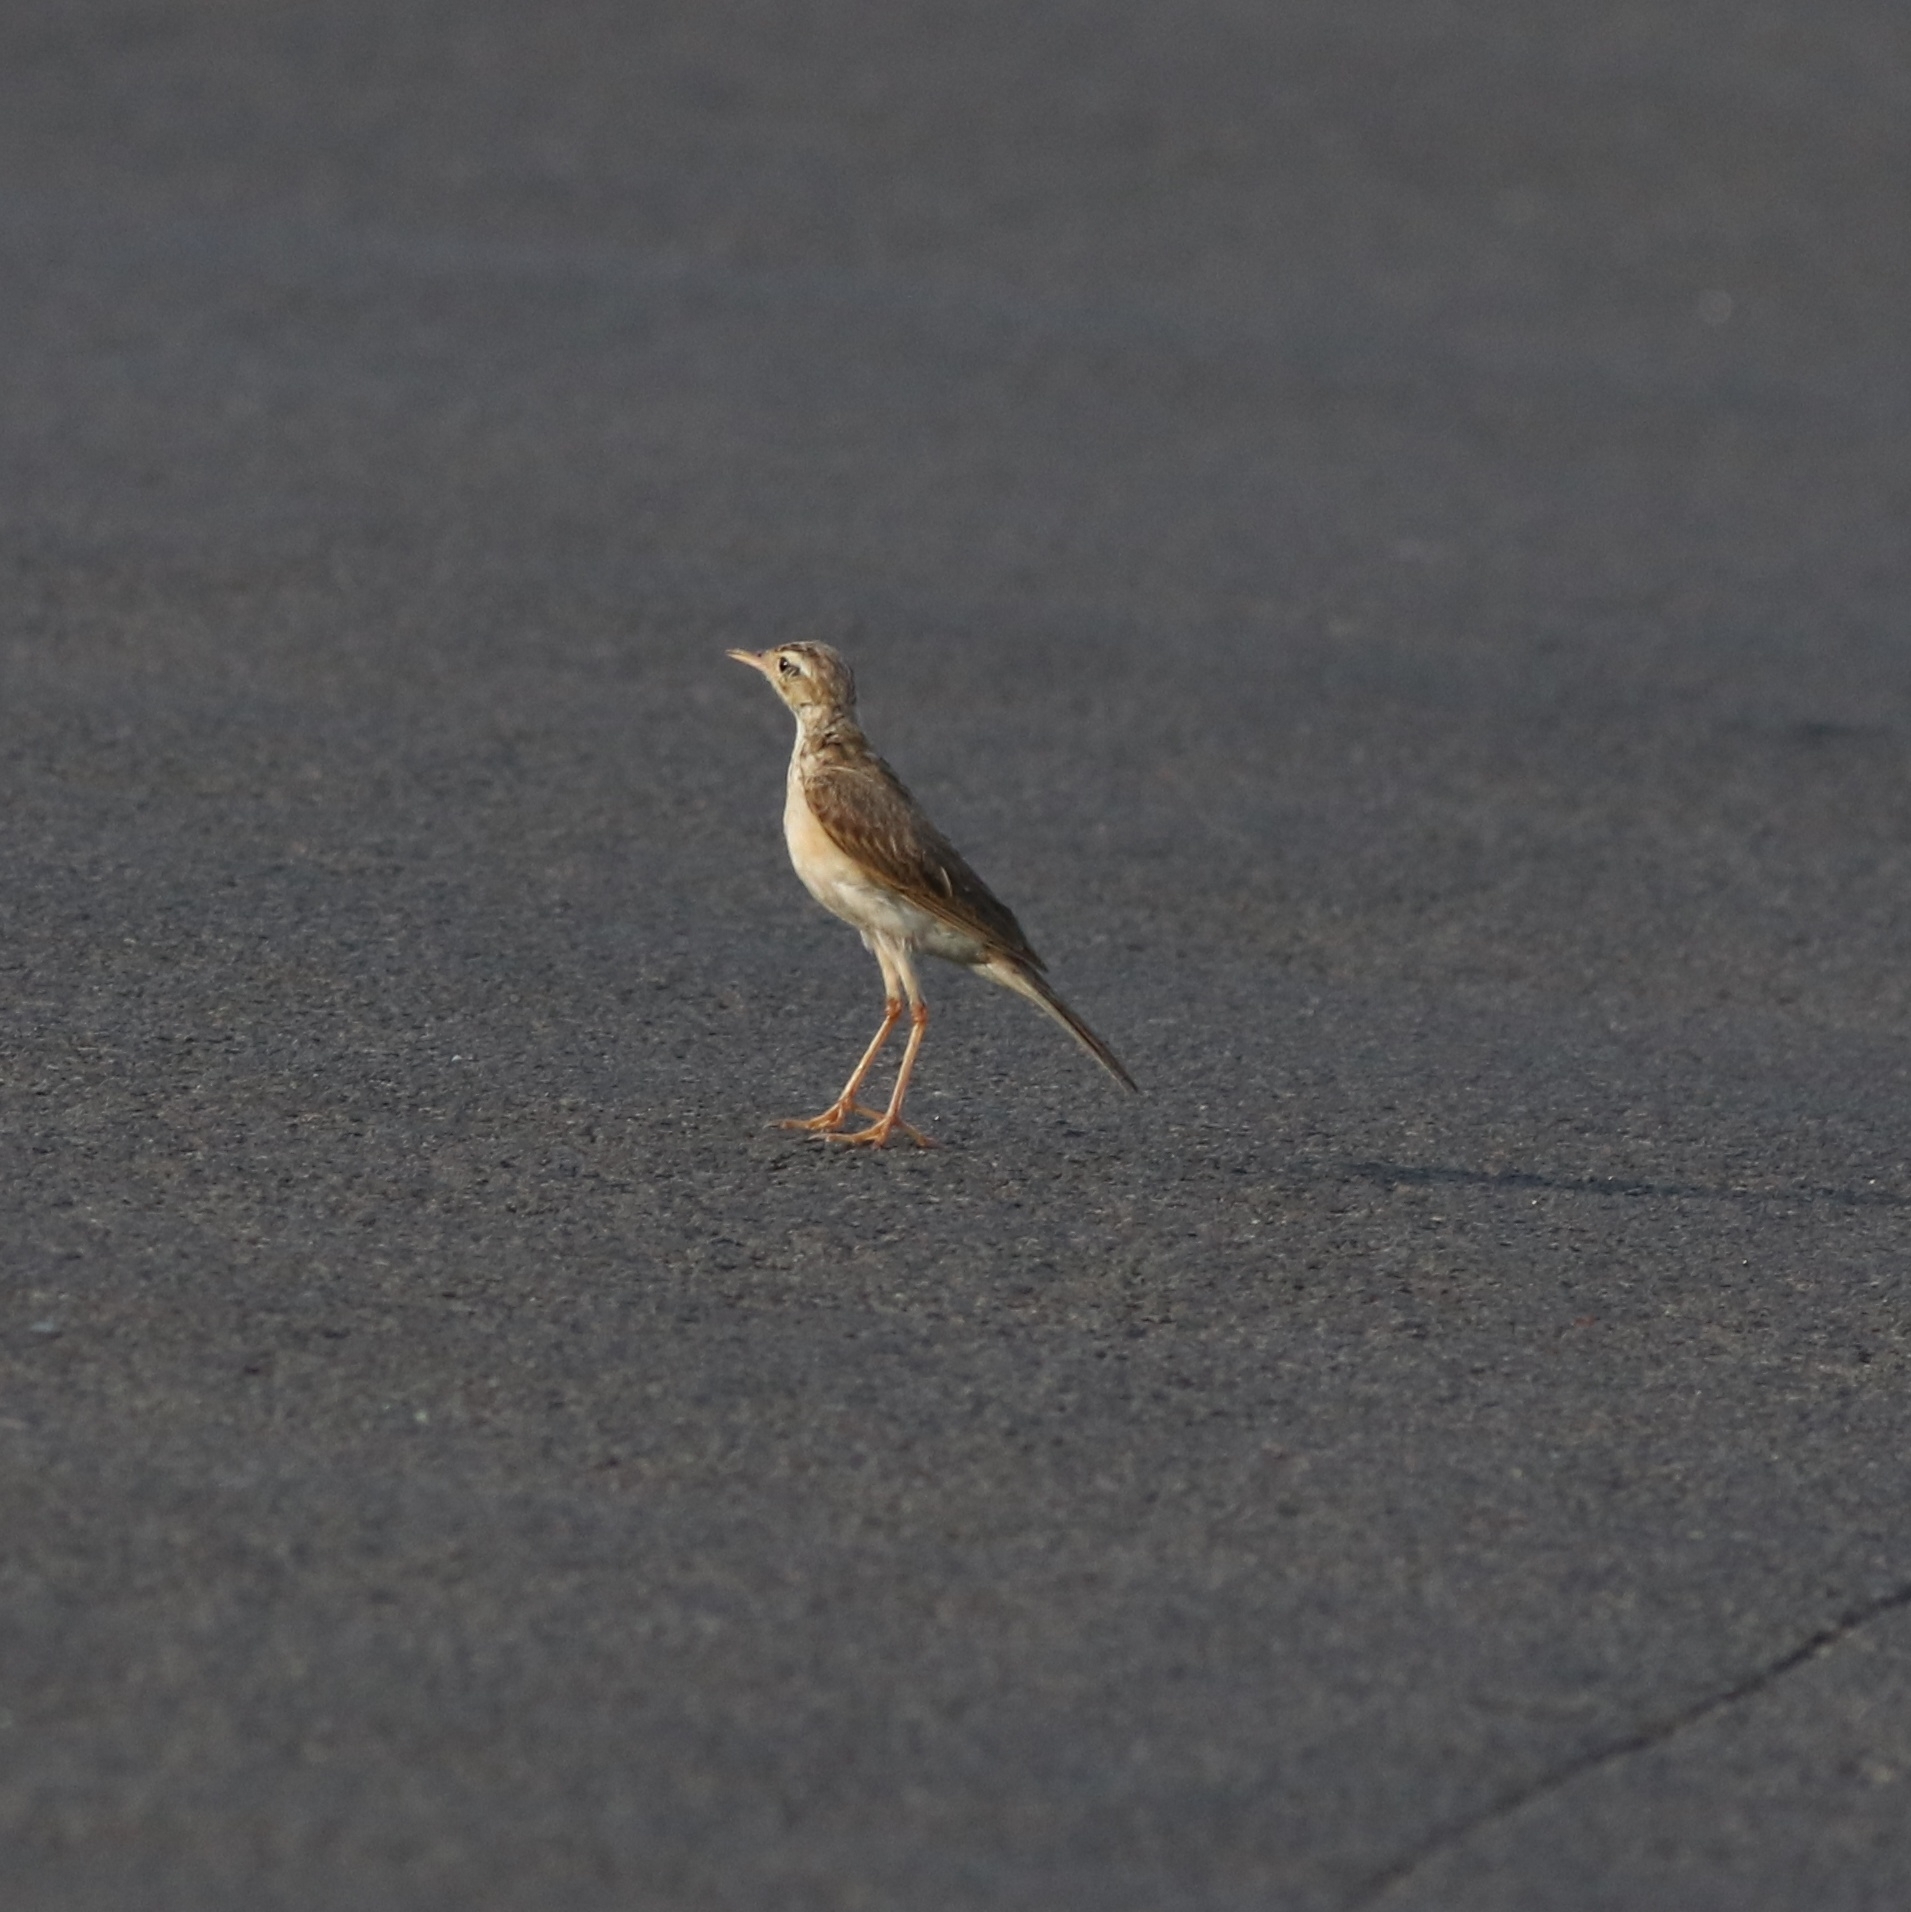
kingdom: Animalia
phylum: Chordata
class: Aves
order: Passeriformes
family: Motacillidae
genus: Anthus
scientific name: Anthus rufulus
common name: Paddyfield pipit
